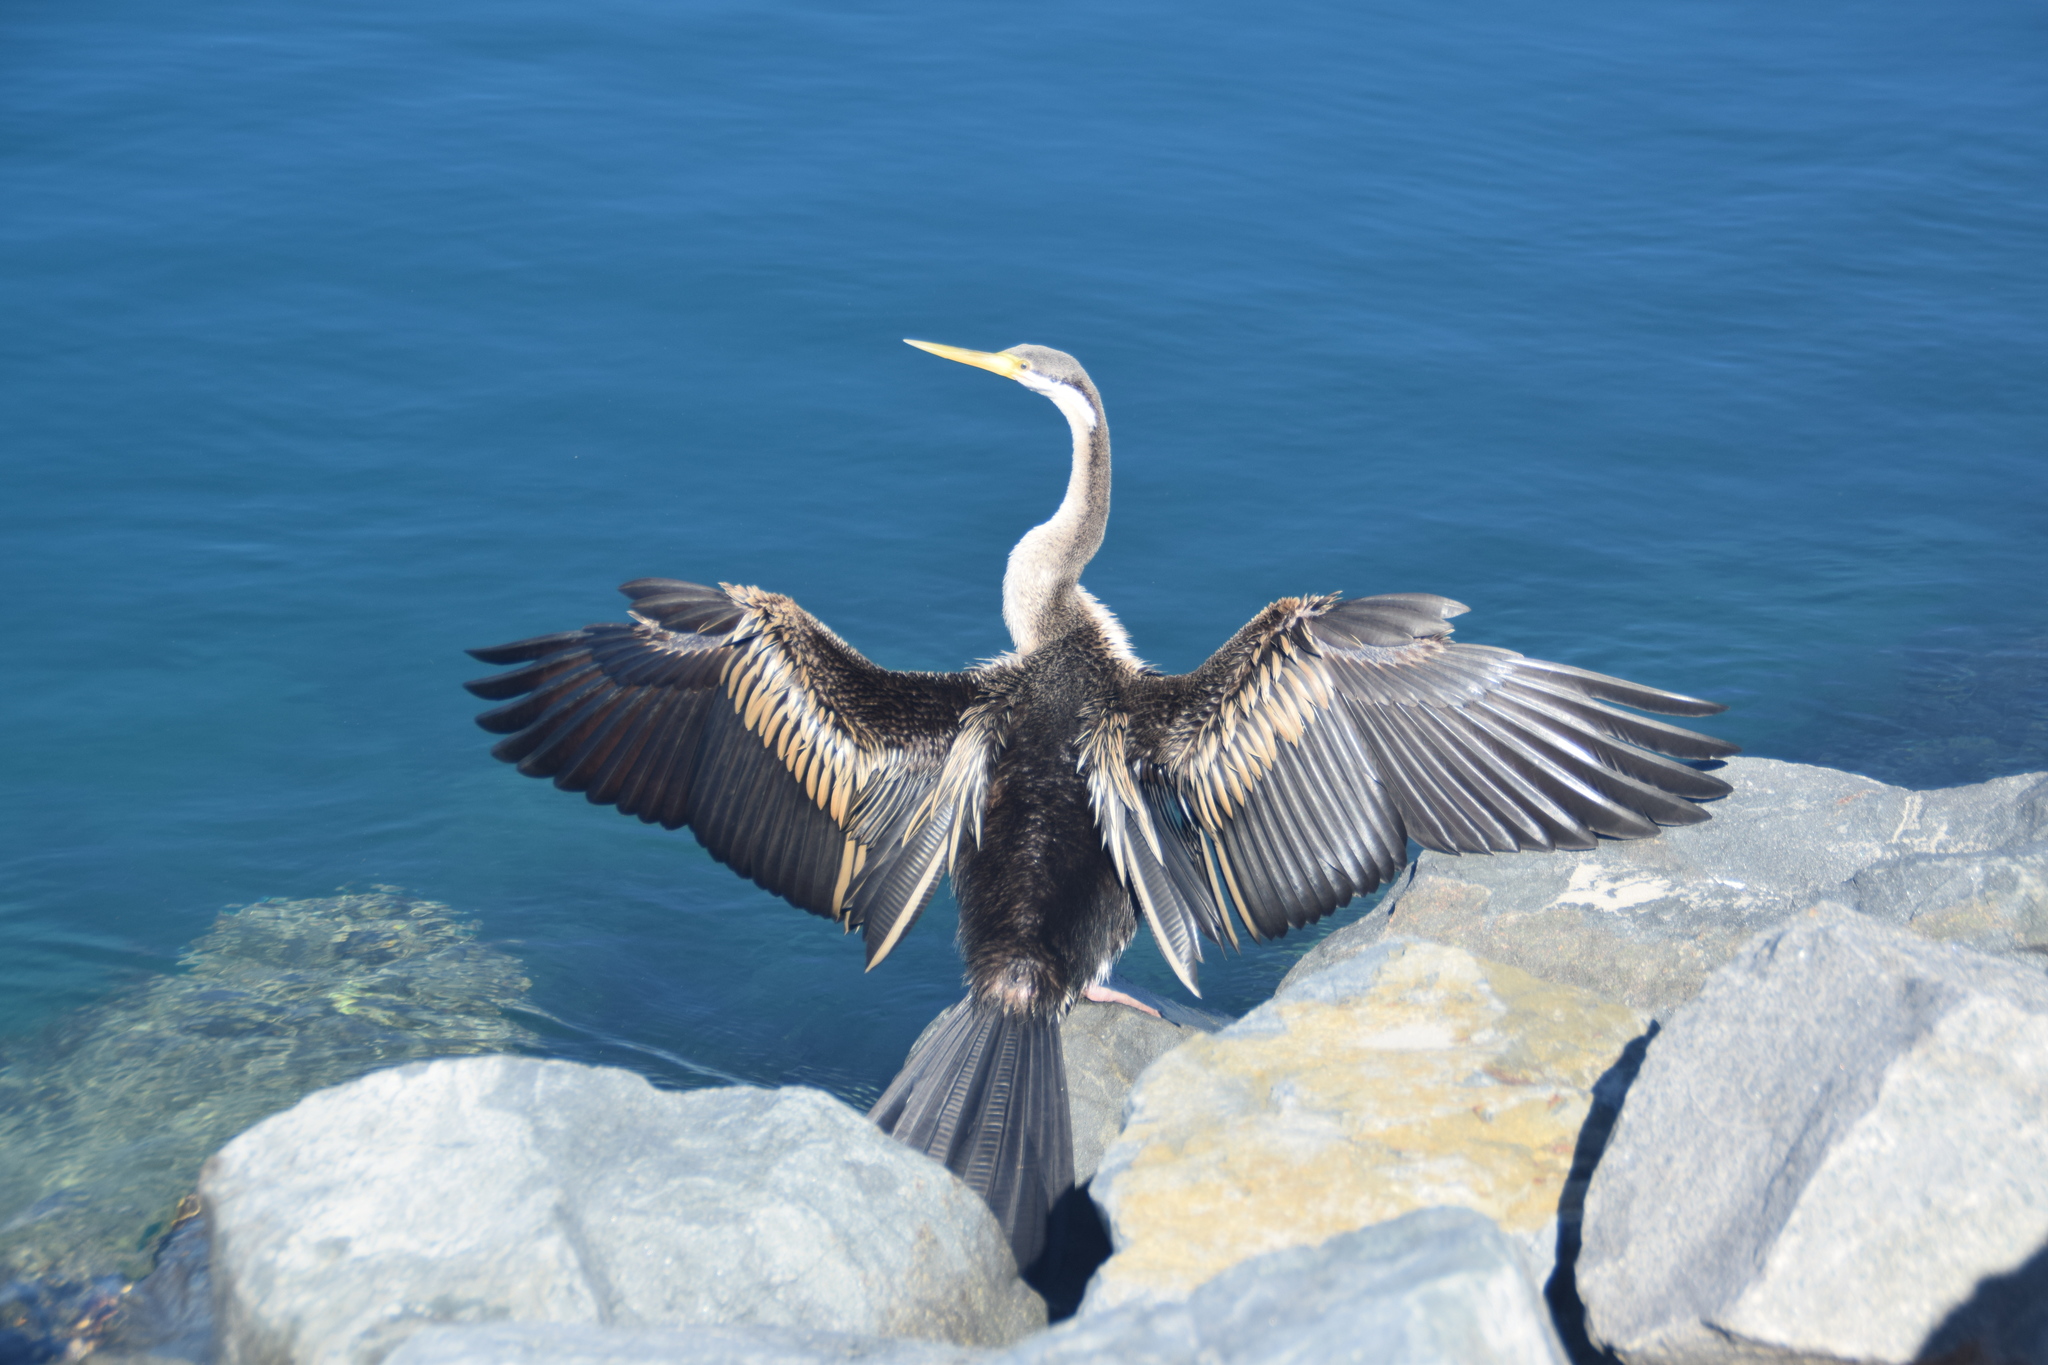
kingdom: Animalia
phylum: Chordata
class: Aves
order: Suliformes
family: Anhingidae
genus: Anhinga
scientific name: Anhinga novaehollandiae
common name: Australasian darter
